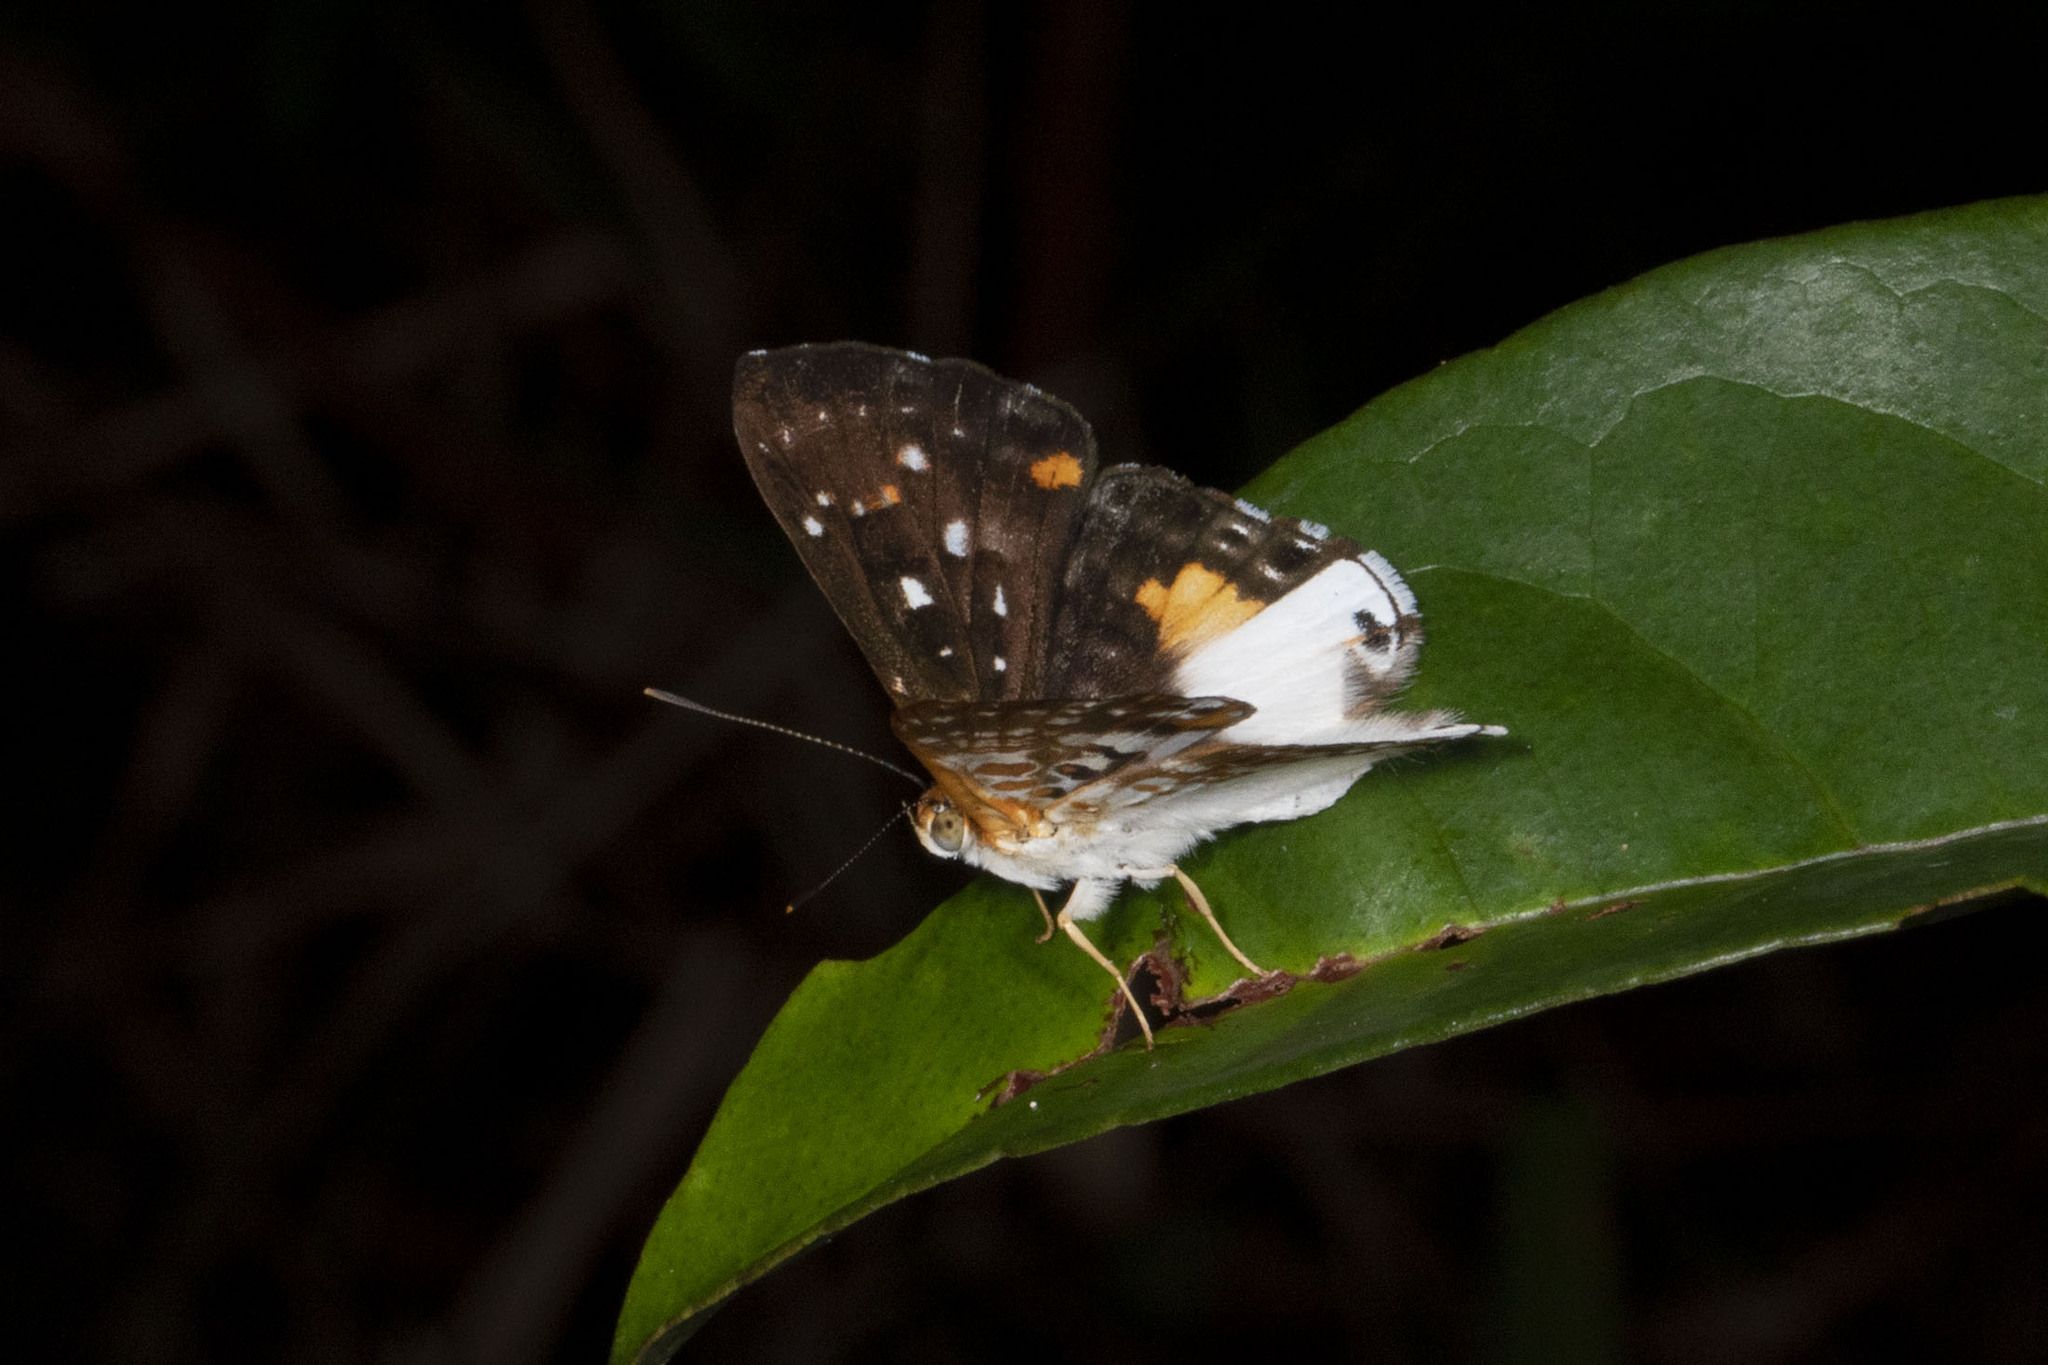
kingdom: Animalia
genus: Lemonias
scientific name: Lemonias zygia
